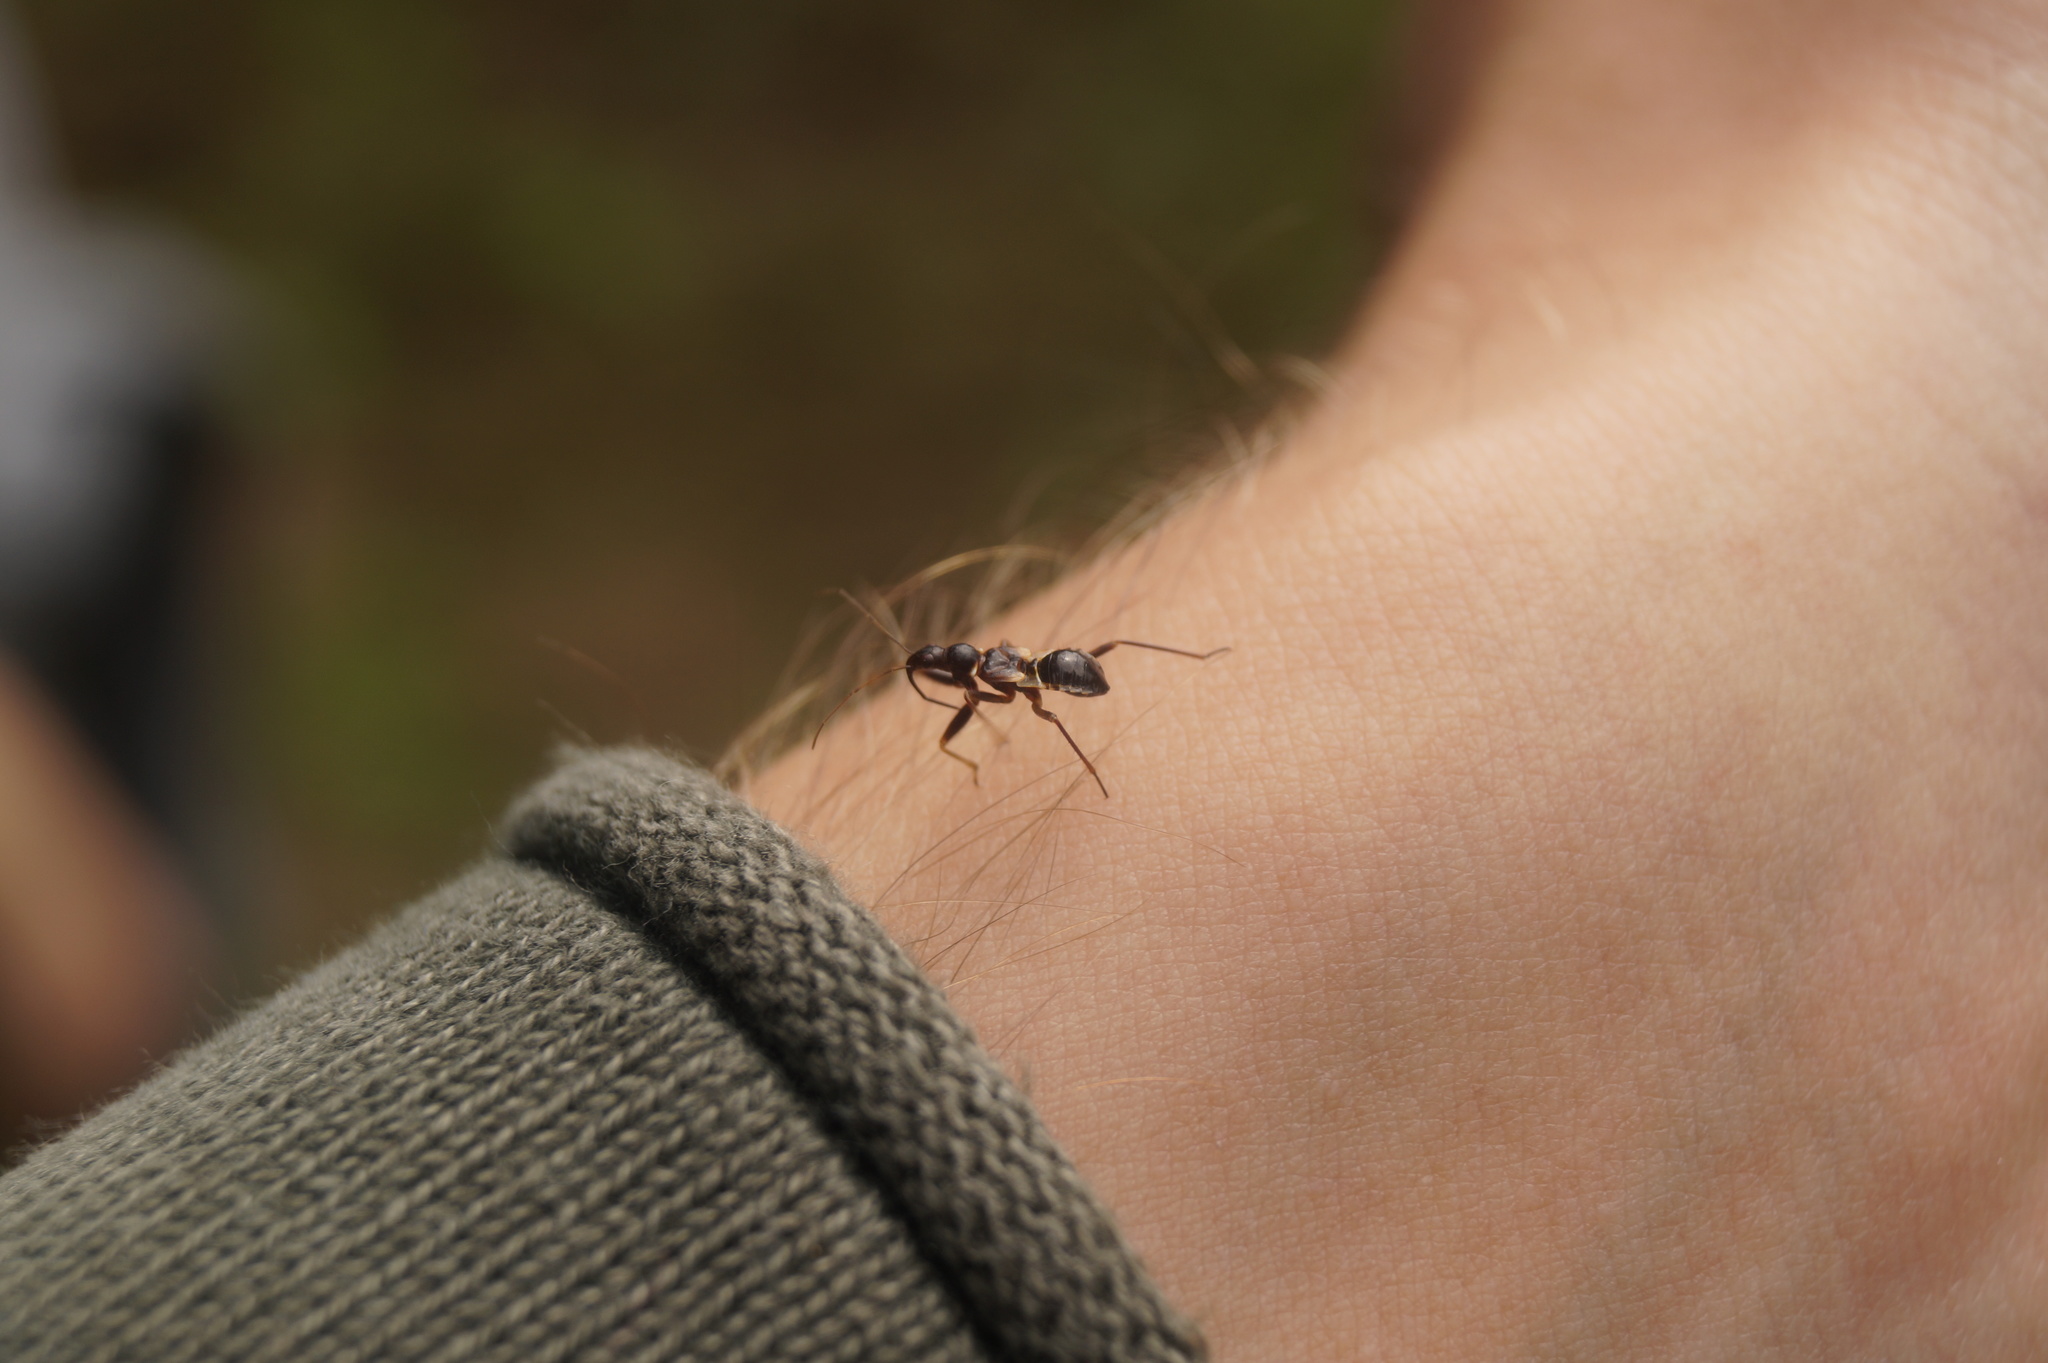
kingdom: Animalia
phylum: Arthropoda
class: Insecta
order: Hemiptera
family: Nabidae
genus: Himacerus
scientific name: Himacerus mirmicoides
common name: Ant damsel bug
